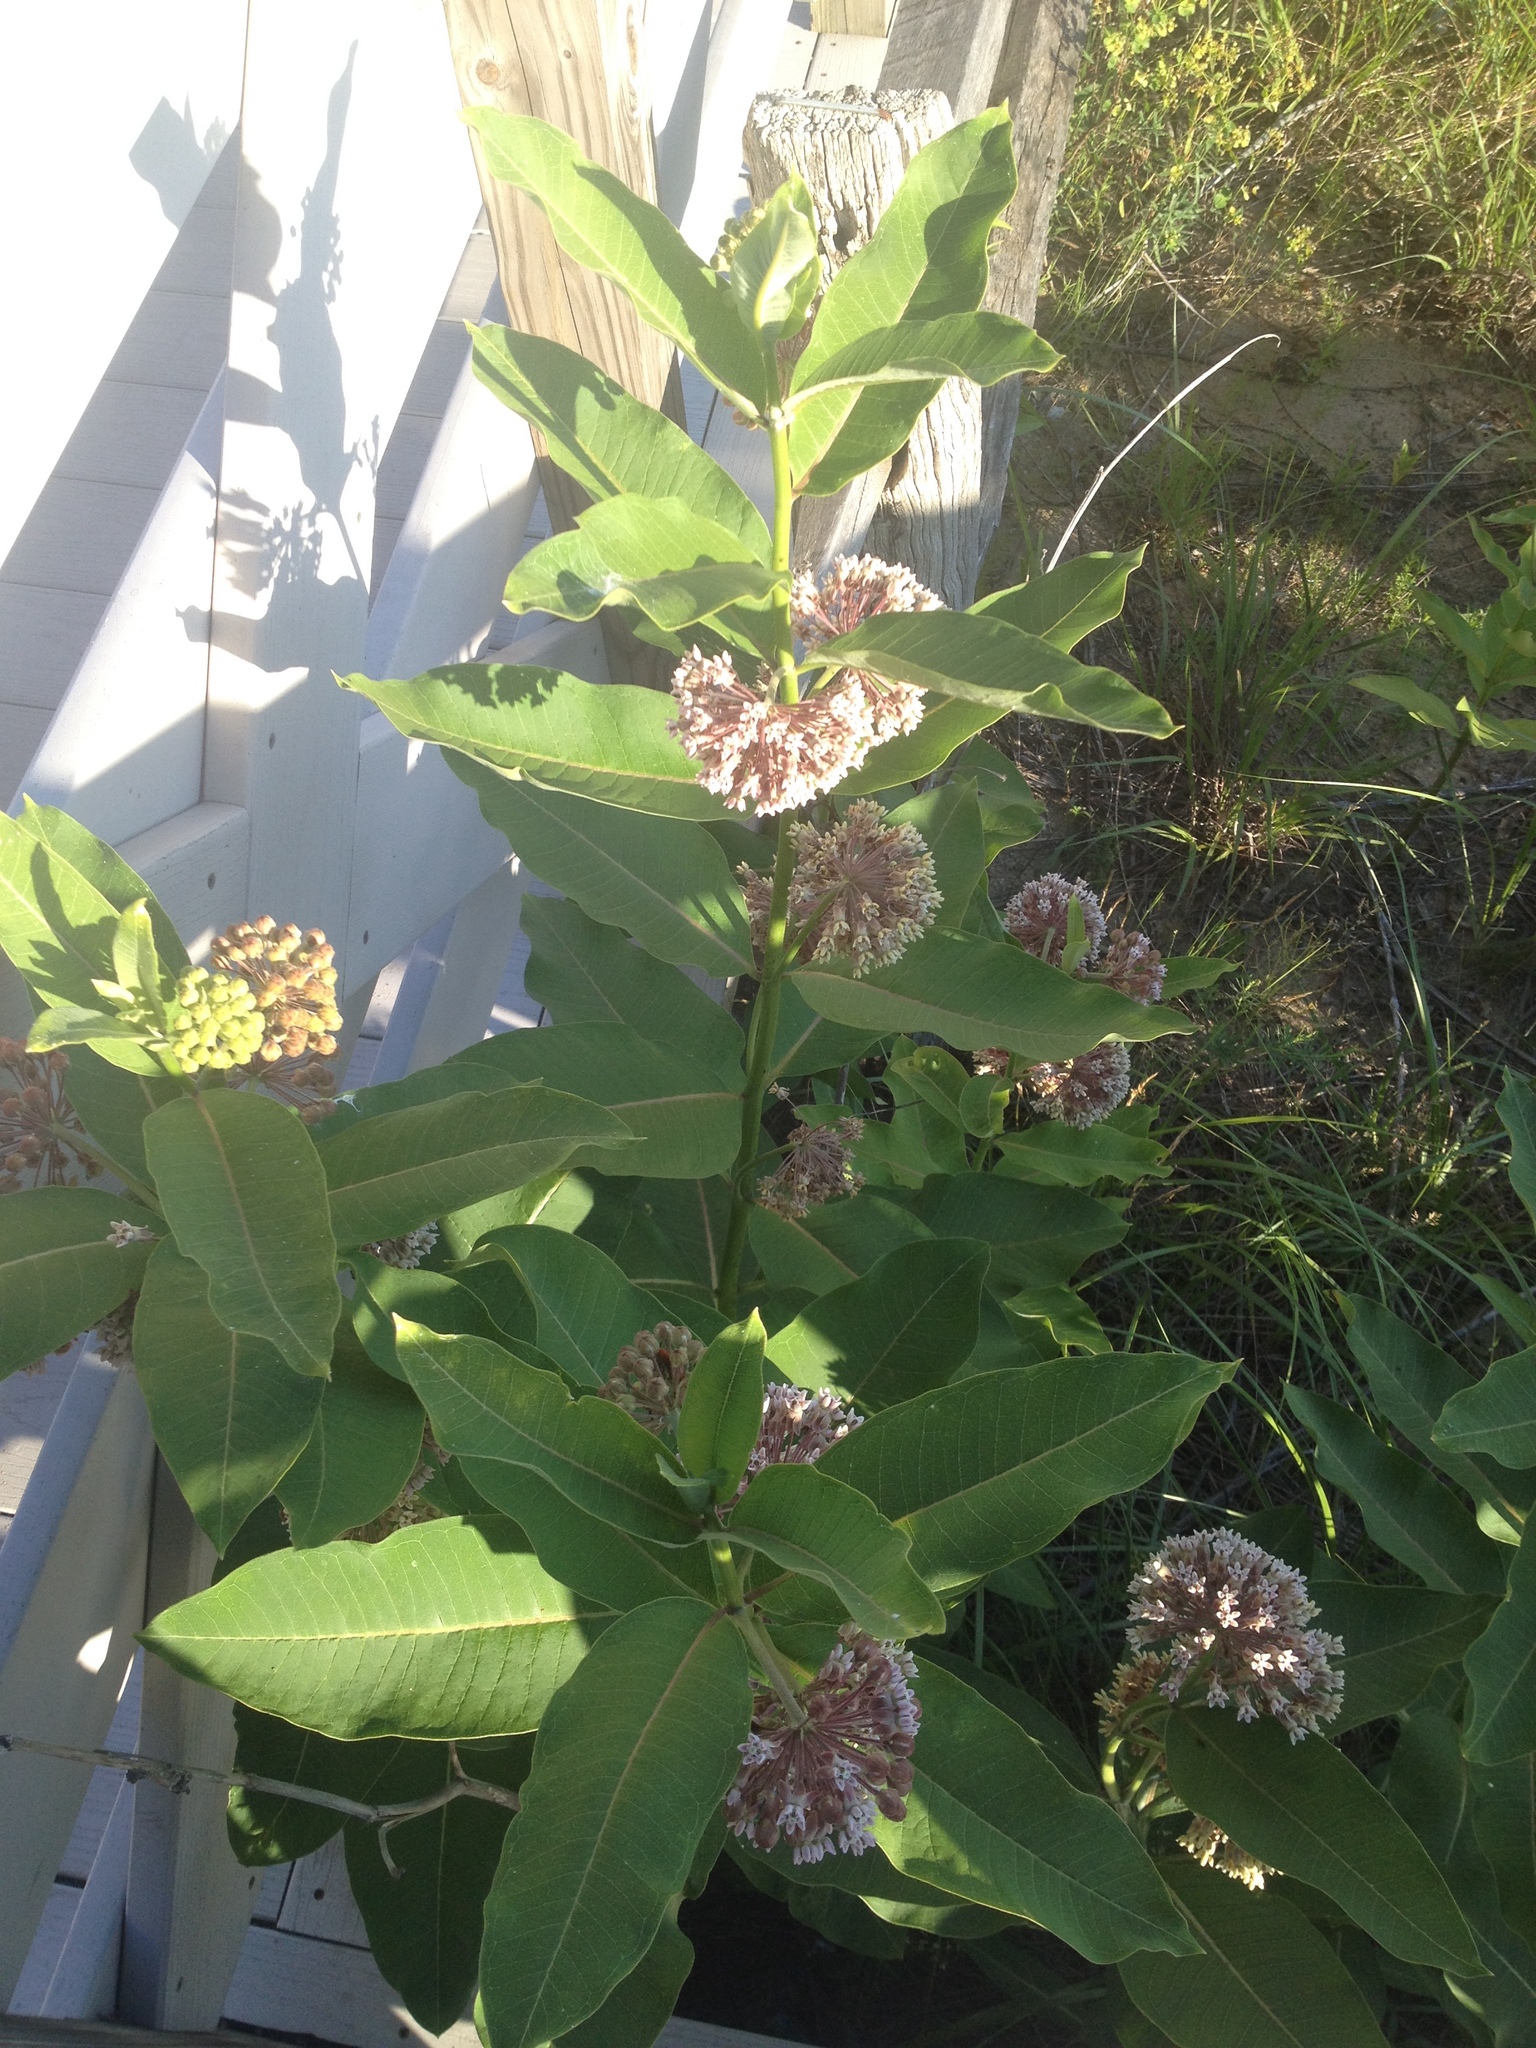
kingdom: Plantae
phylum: Tracheophyta
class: Magnoliopsida
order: Gentianales
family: Apocynaceae
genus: Asclepias
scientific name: Asclepias syriaca
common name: Common milkweed
